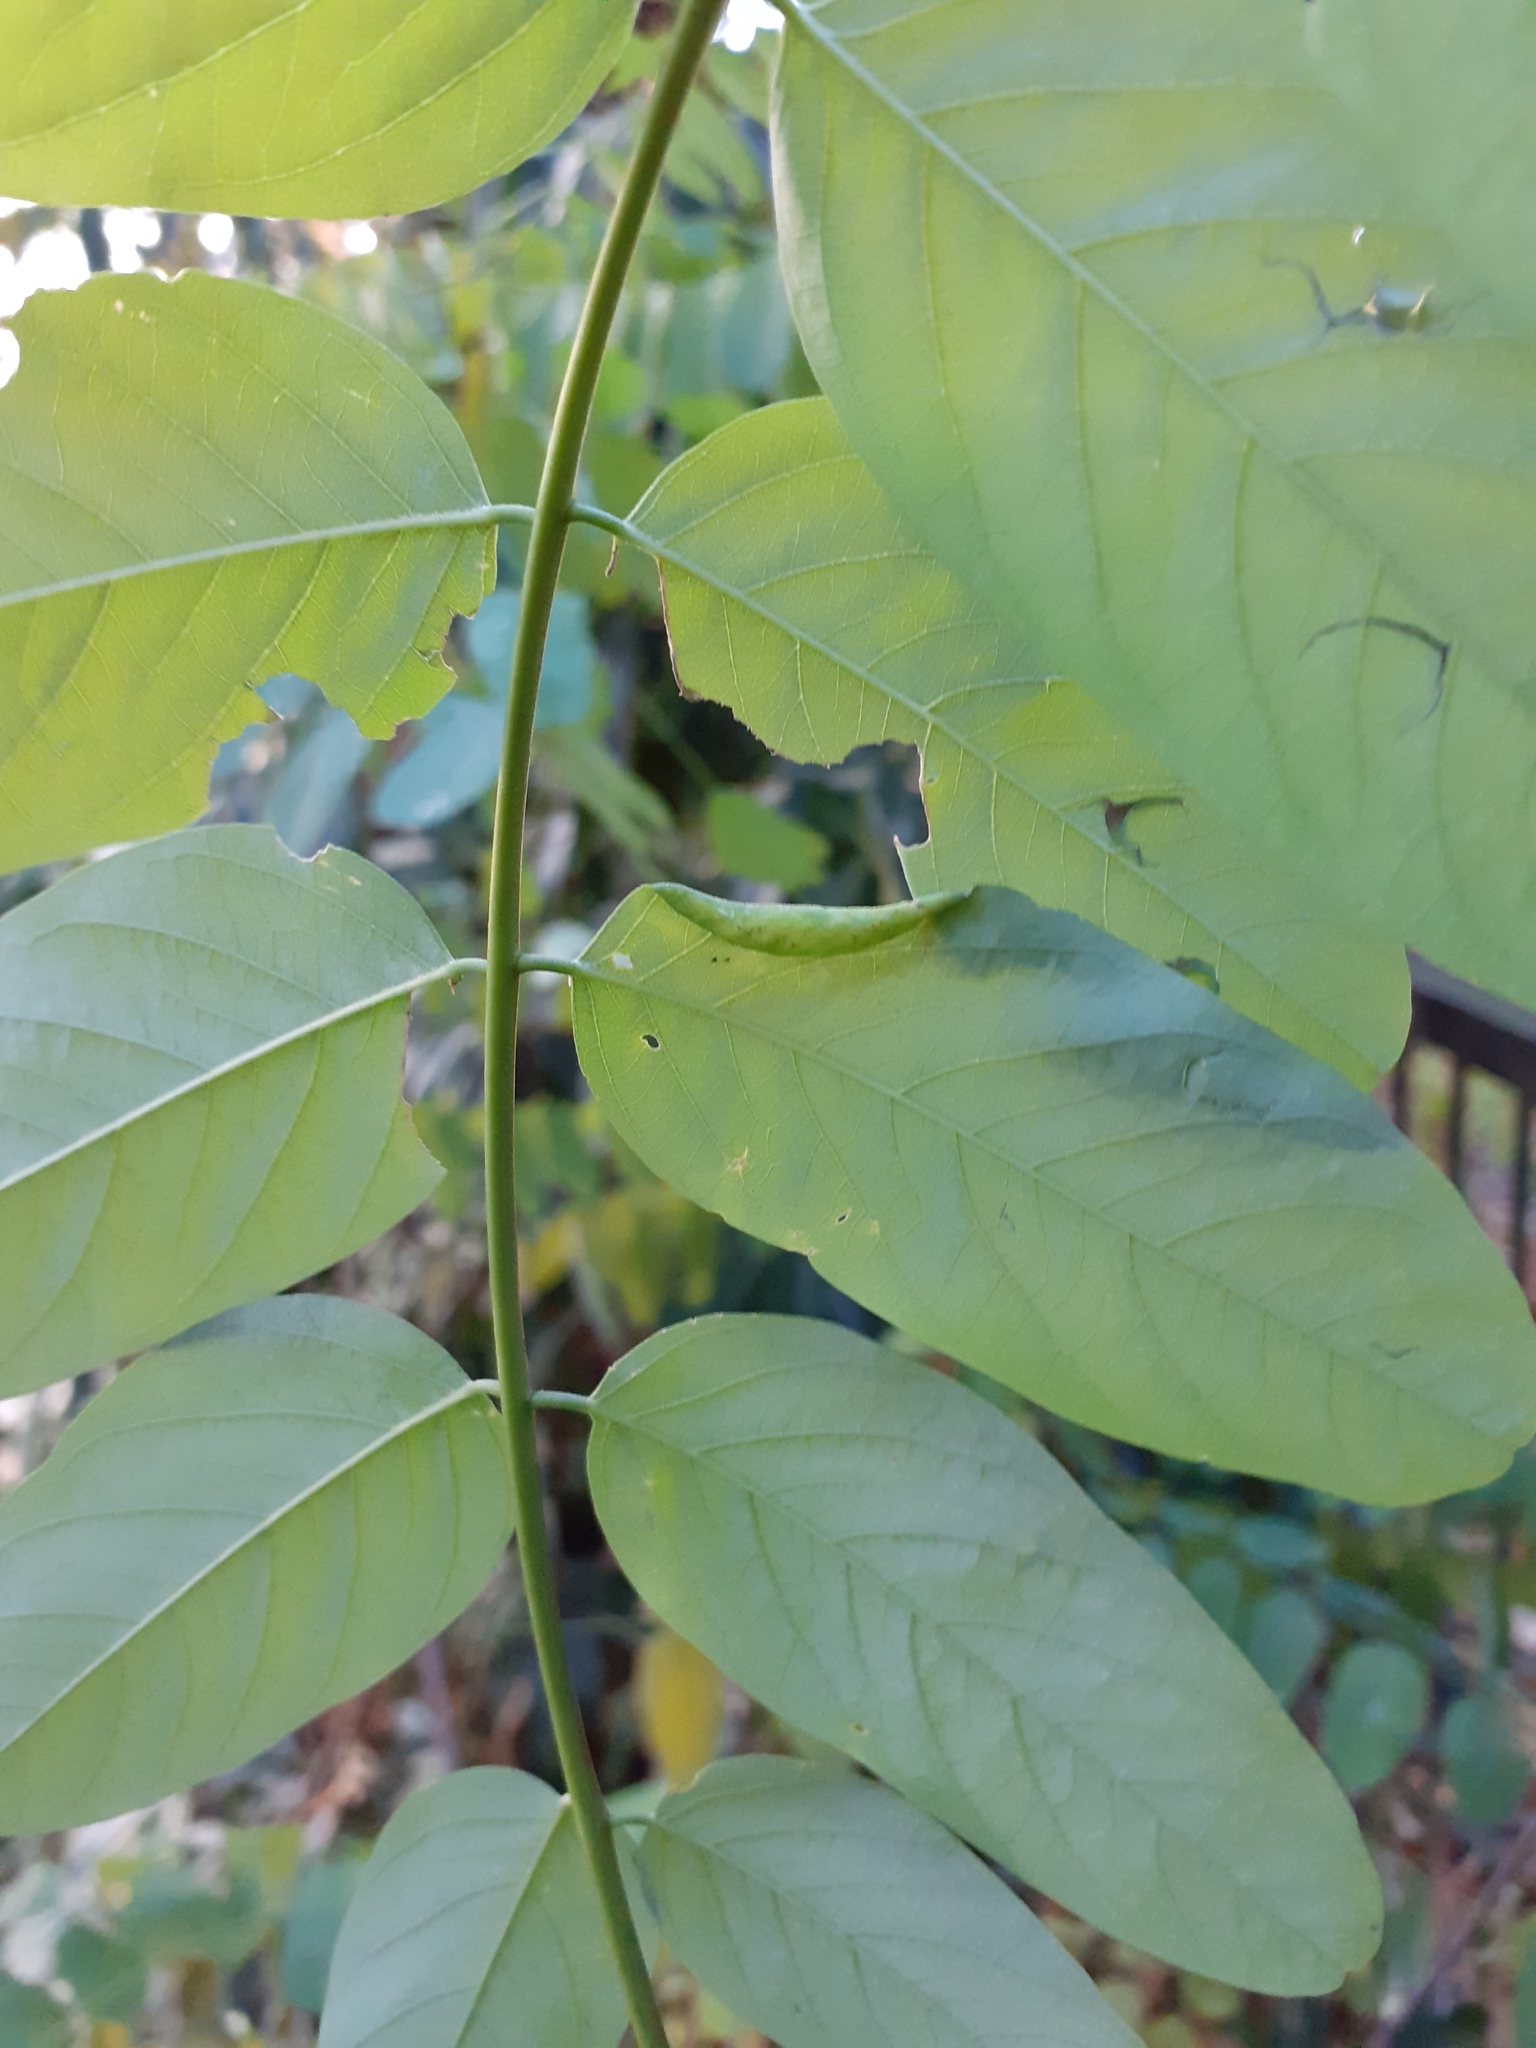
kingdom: Animalia
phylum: Arthropoda
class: Insecta
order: Diptera
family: Cecidomyiidae
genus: Obolodiplosis
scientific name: Obolodiplosis robiniae
